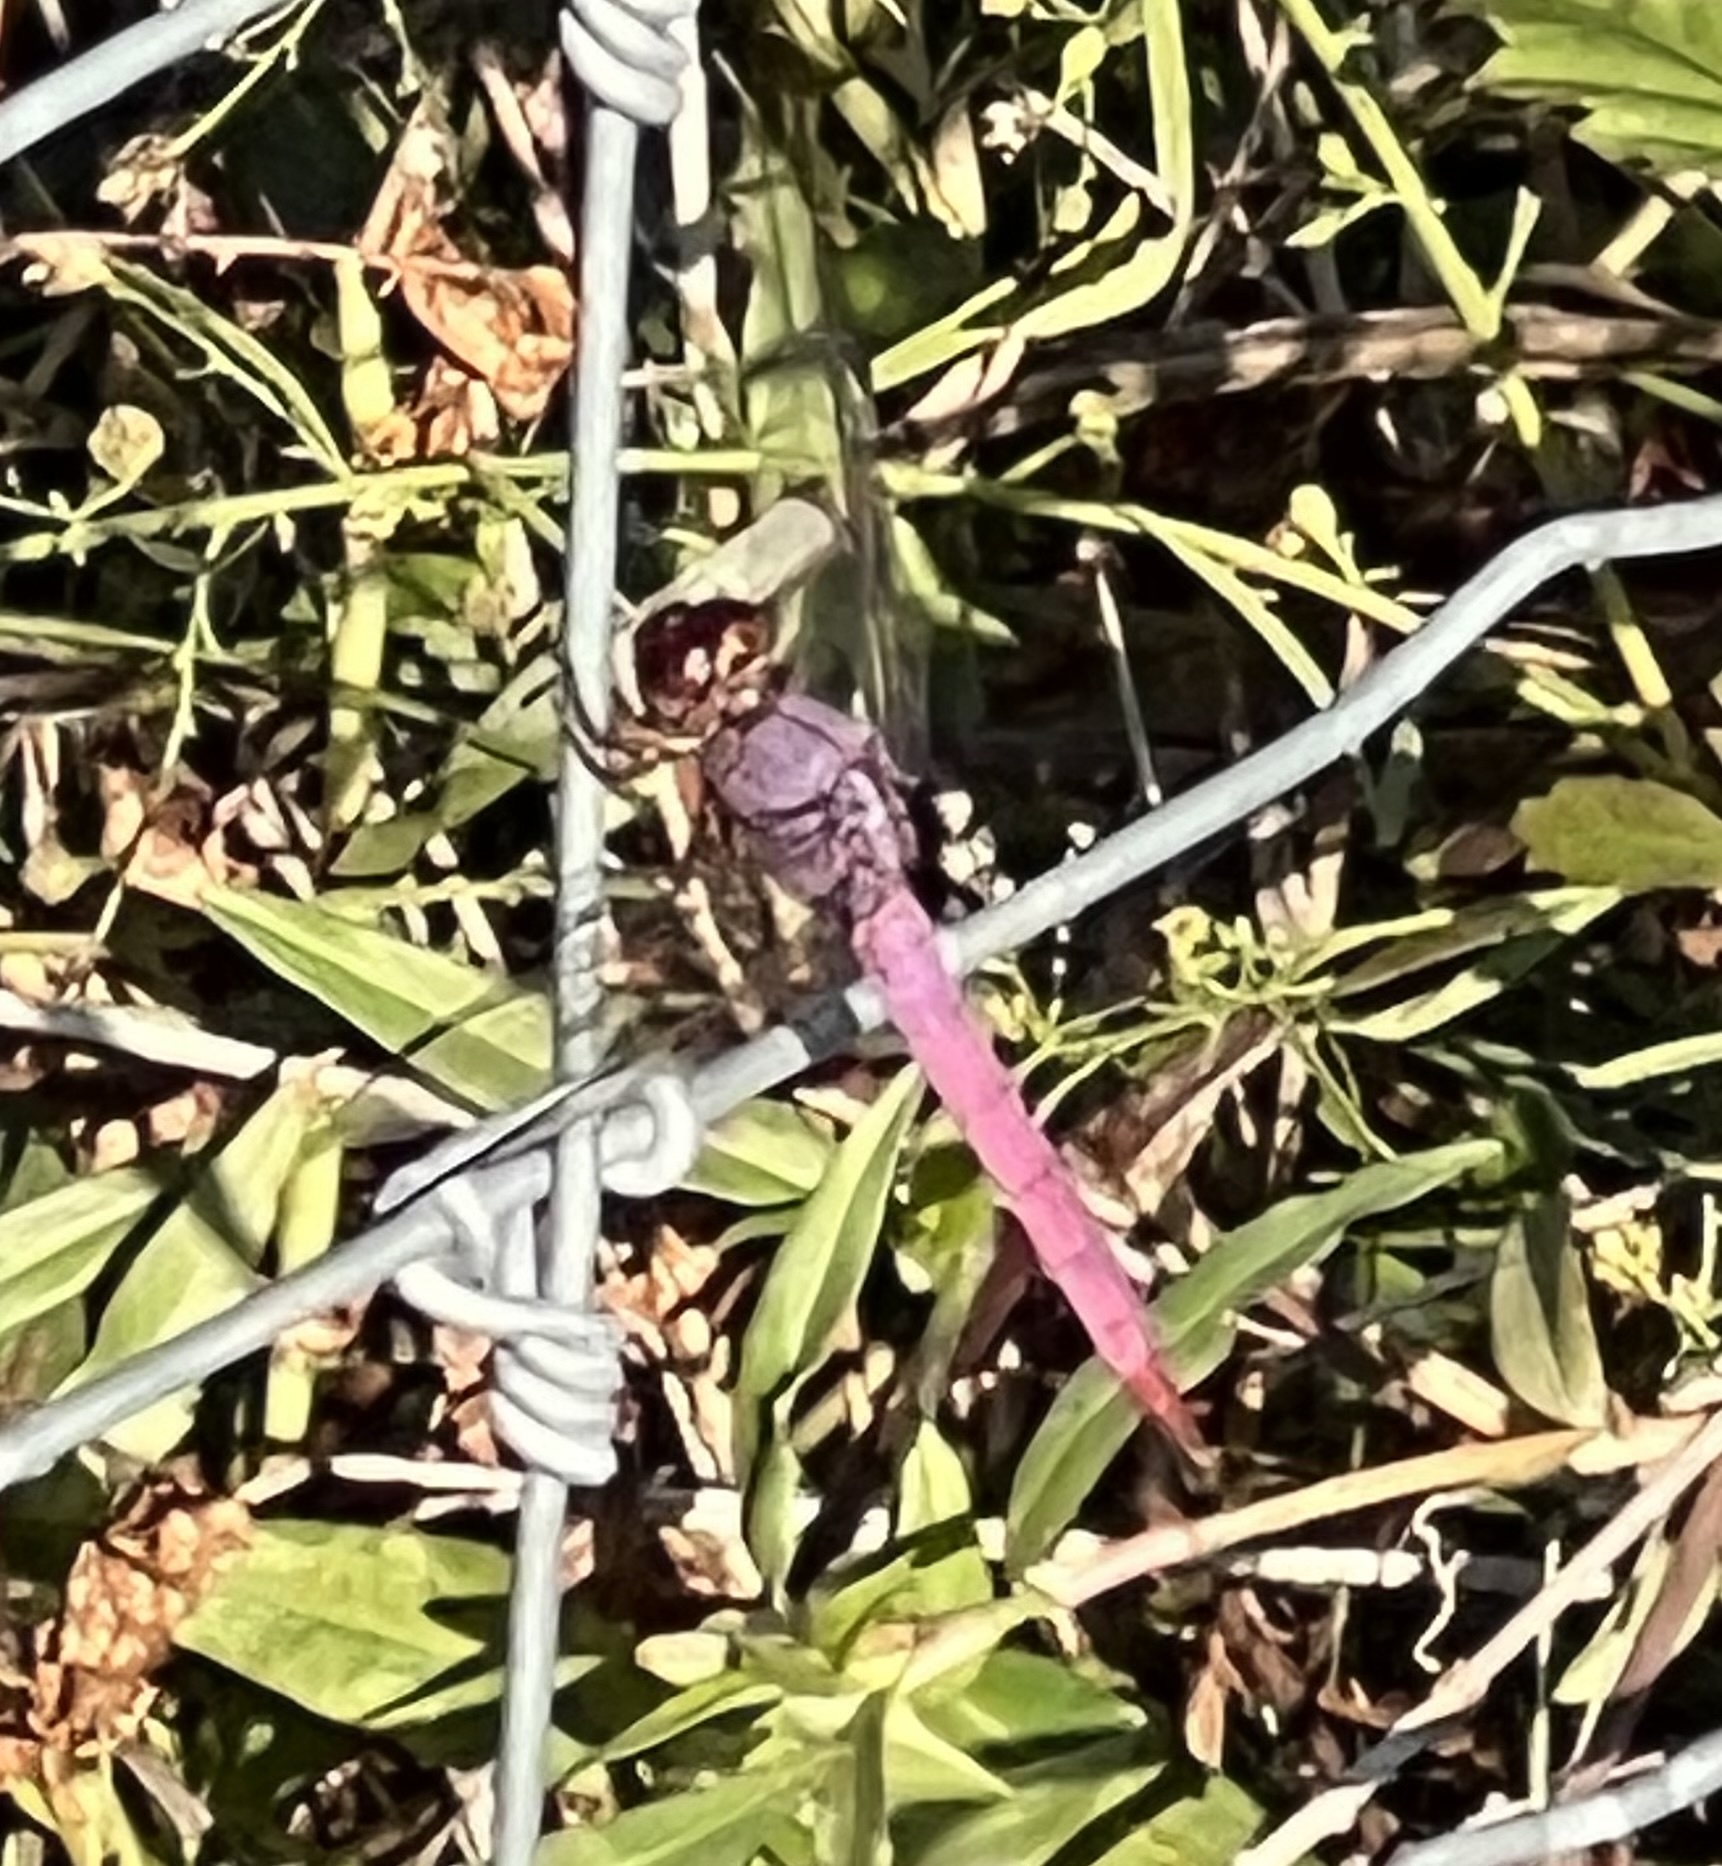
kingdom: Animalia
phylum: Arthropoda
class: Insecta
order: Odonata
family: Libellulidae
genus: Orthemis
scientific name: Orthemis ferruginea
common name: Roseate skimmer
